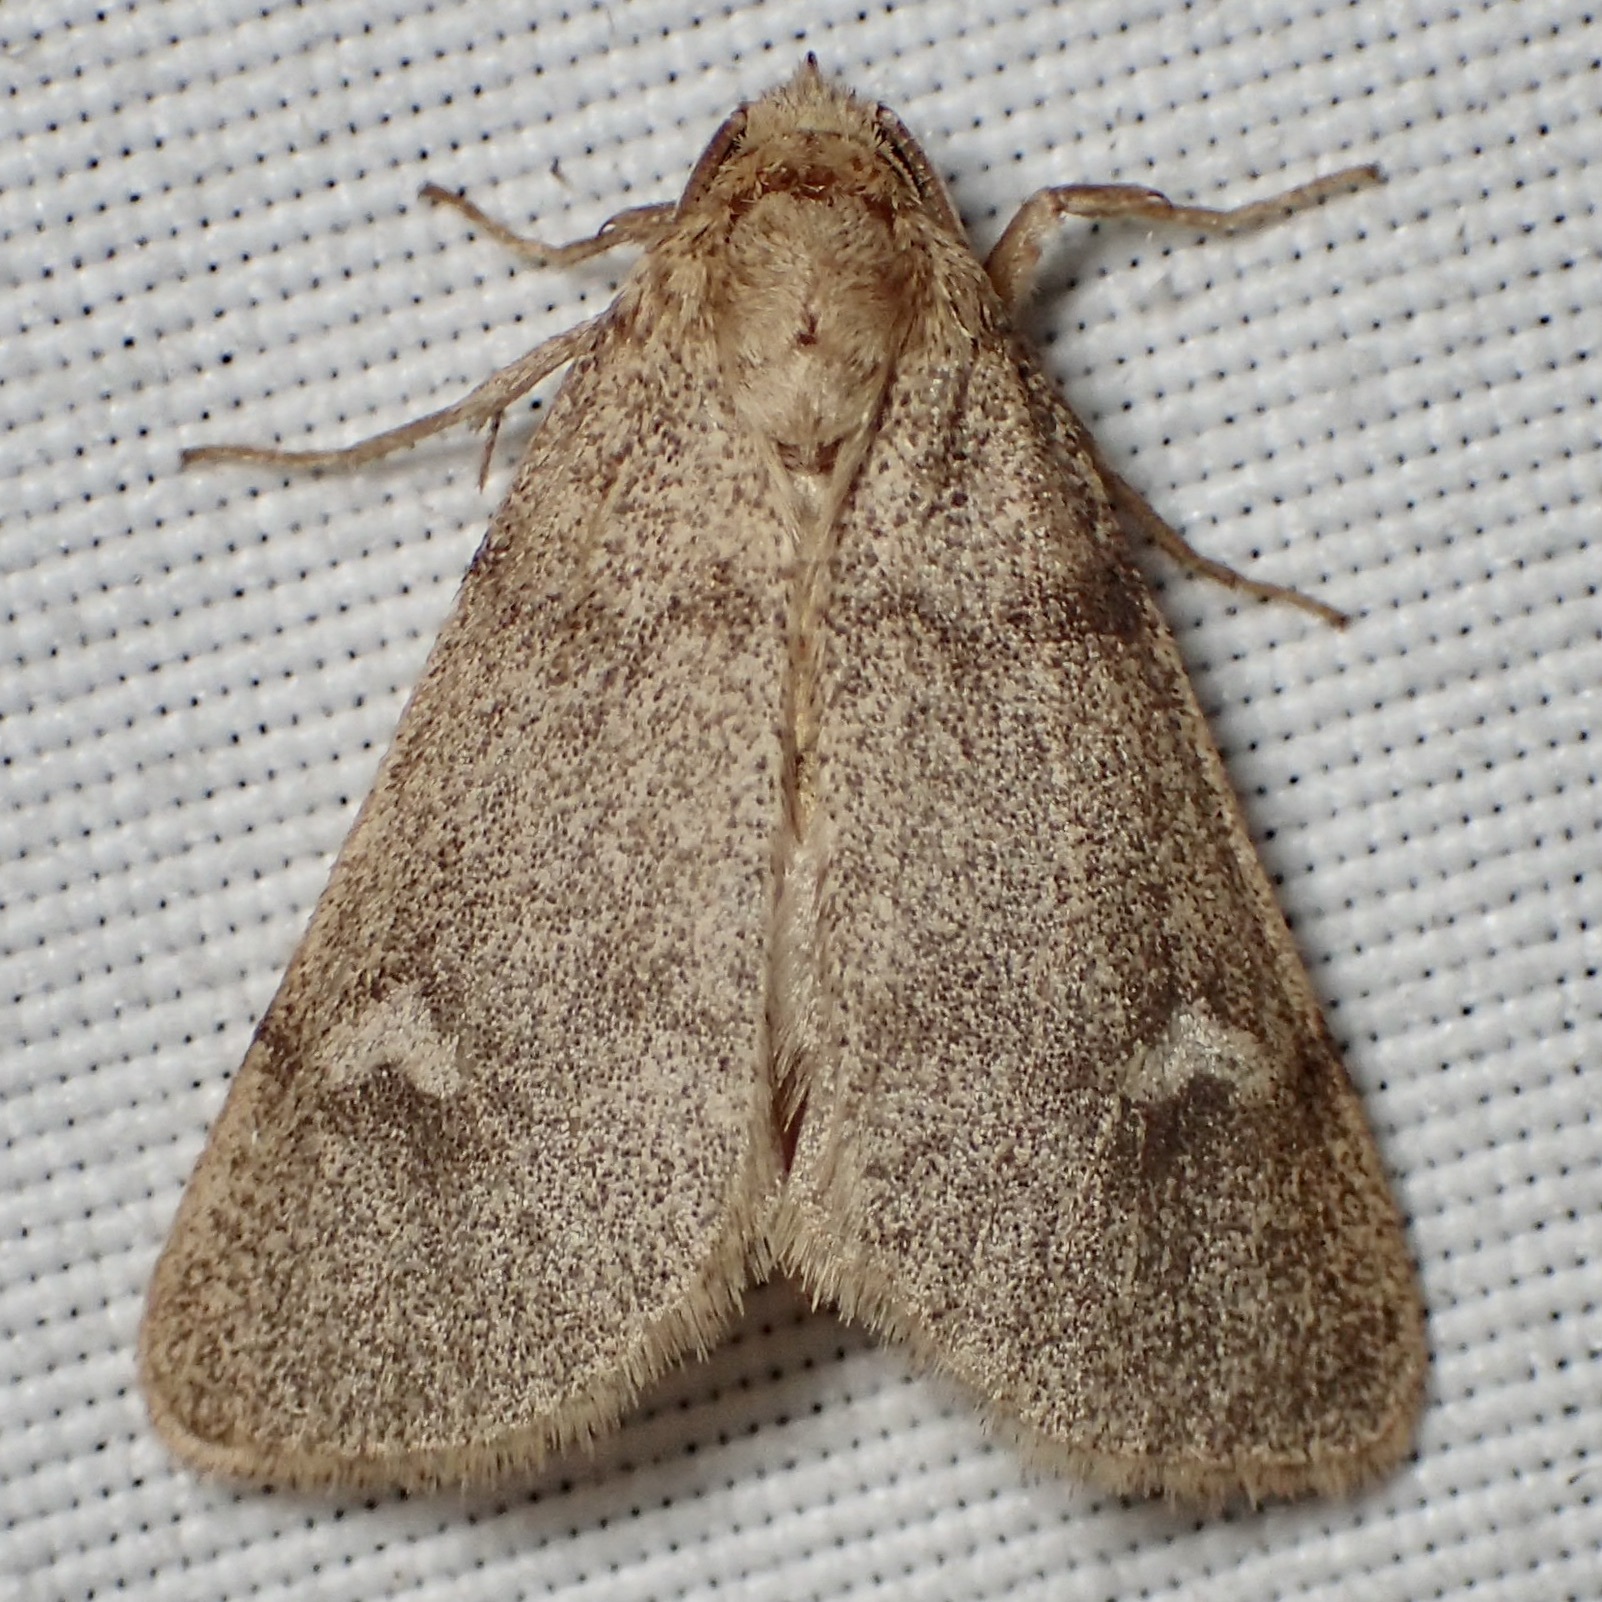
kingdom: Animalia
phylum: Arthropoda
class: Insecta
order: Lepidoptera
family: Noctuidae
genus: Narthecophora
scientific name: Narthecophora pulverea
